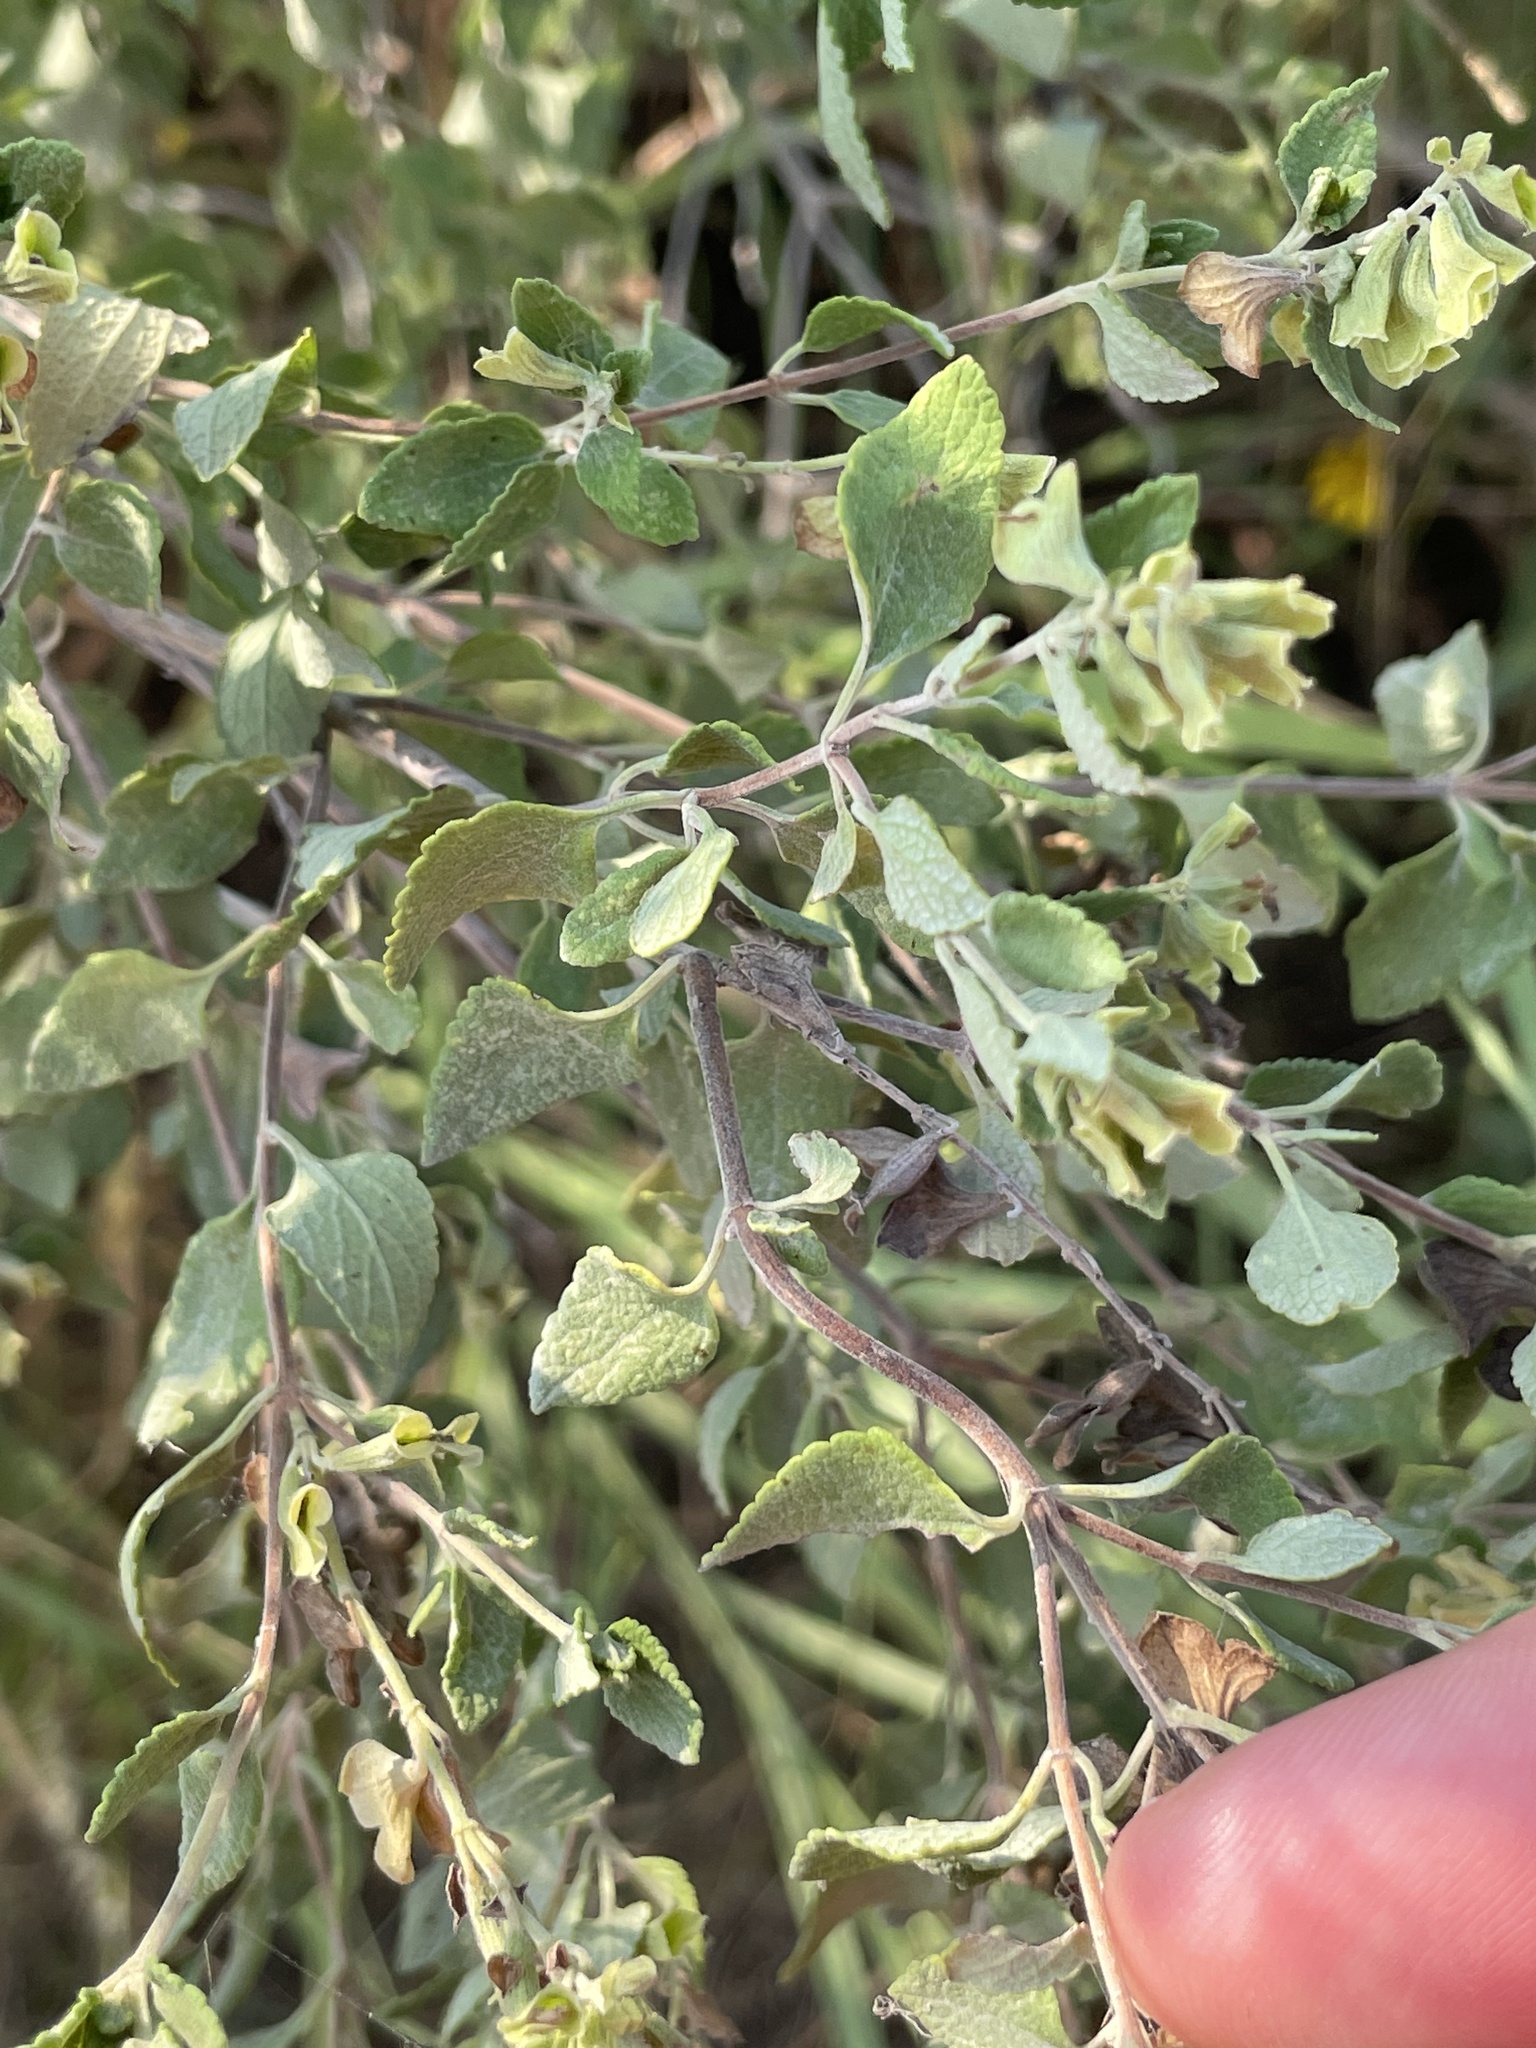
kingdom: Plantae
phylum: Tracheophyta
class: Magnoliopsida
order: Lamiales
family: Lamiaceae
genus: Salvia
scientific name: Salvia ballotiflora
